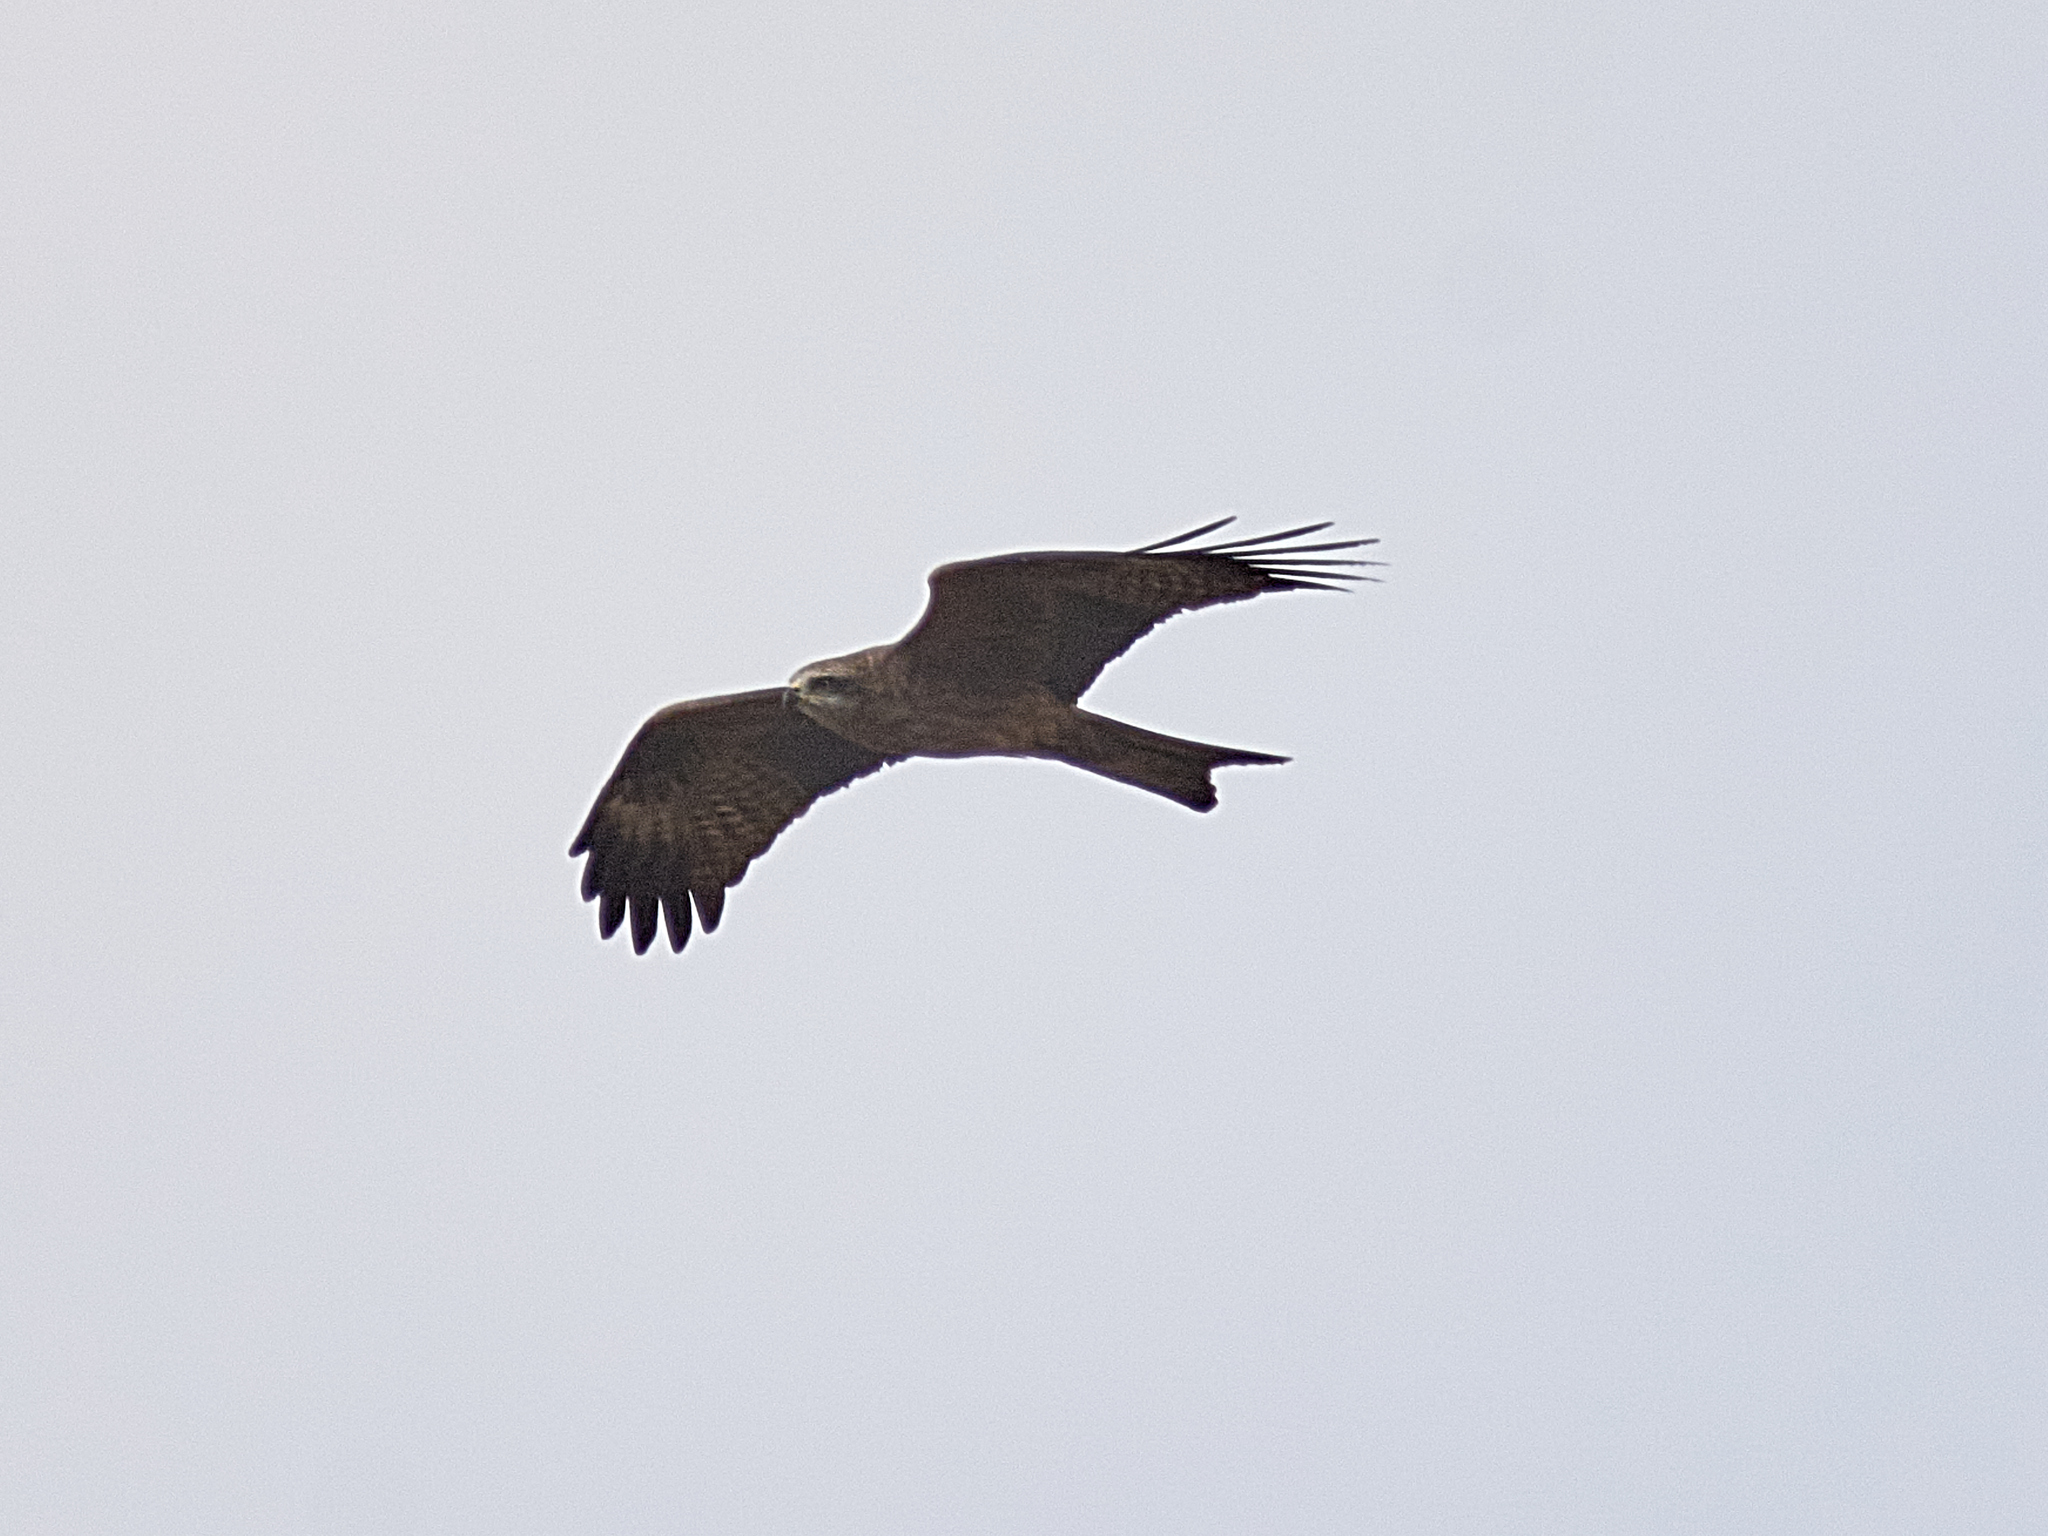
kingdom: Animalia
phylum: Chordata
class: Aves
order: Accipitriformes
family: Accipitridae
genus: Milvus
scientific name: Milvus migrans
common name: Black kite
